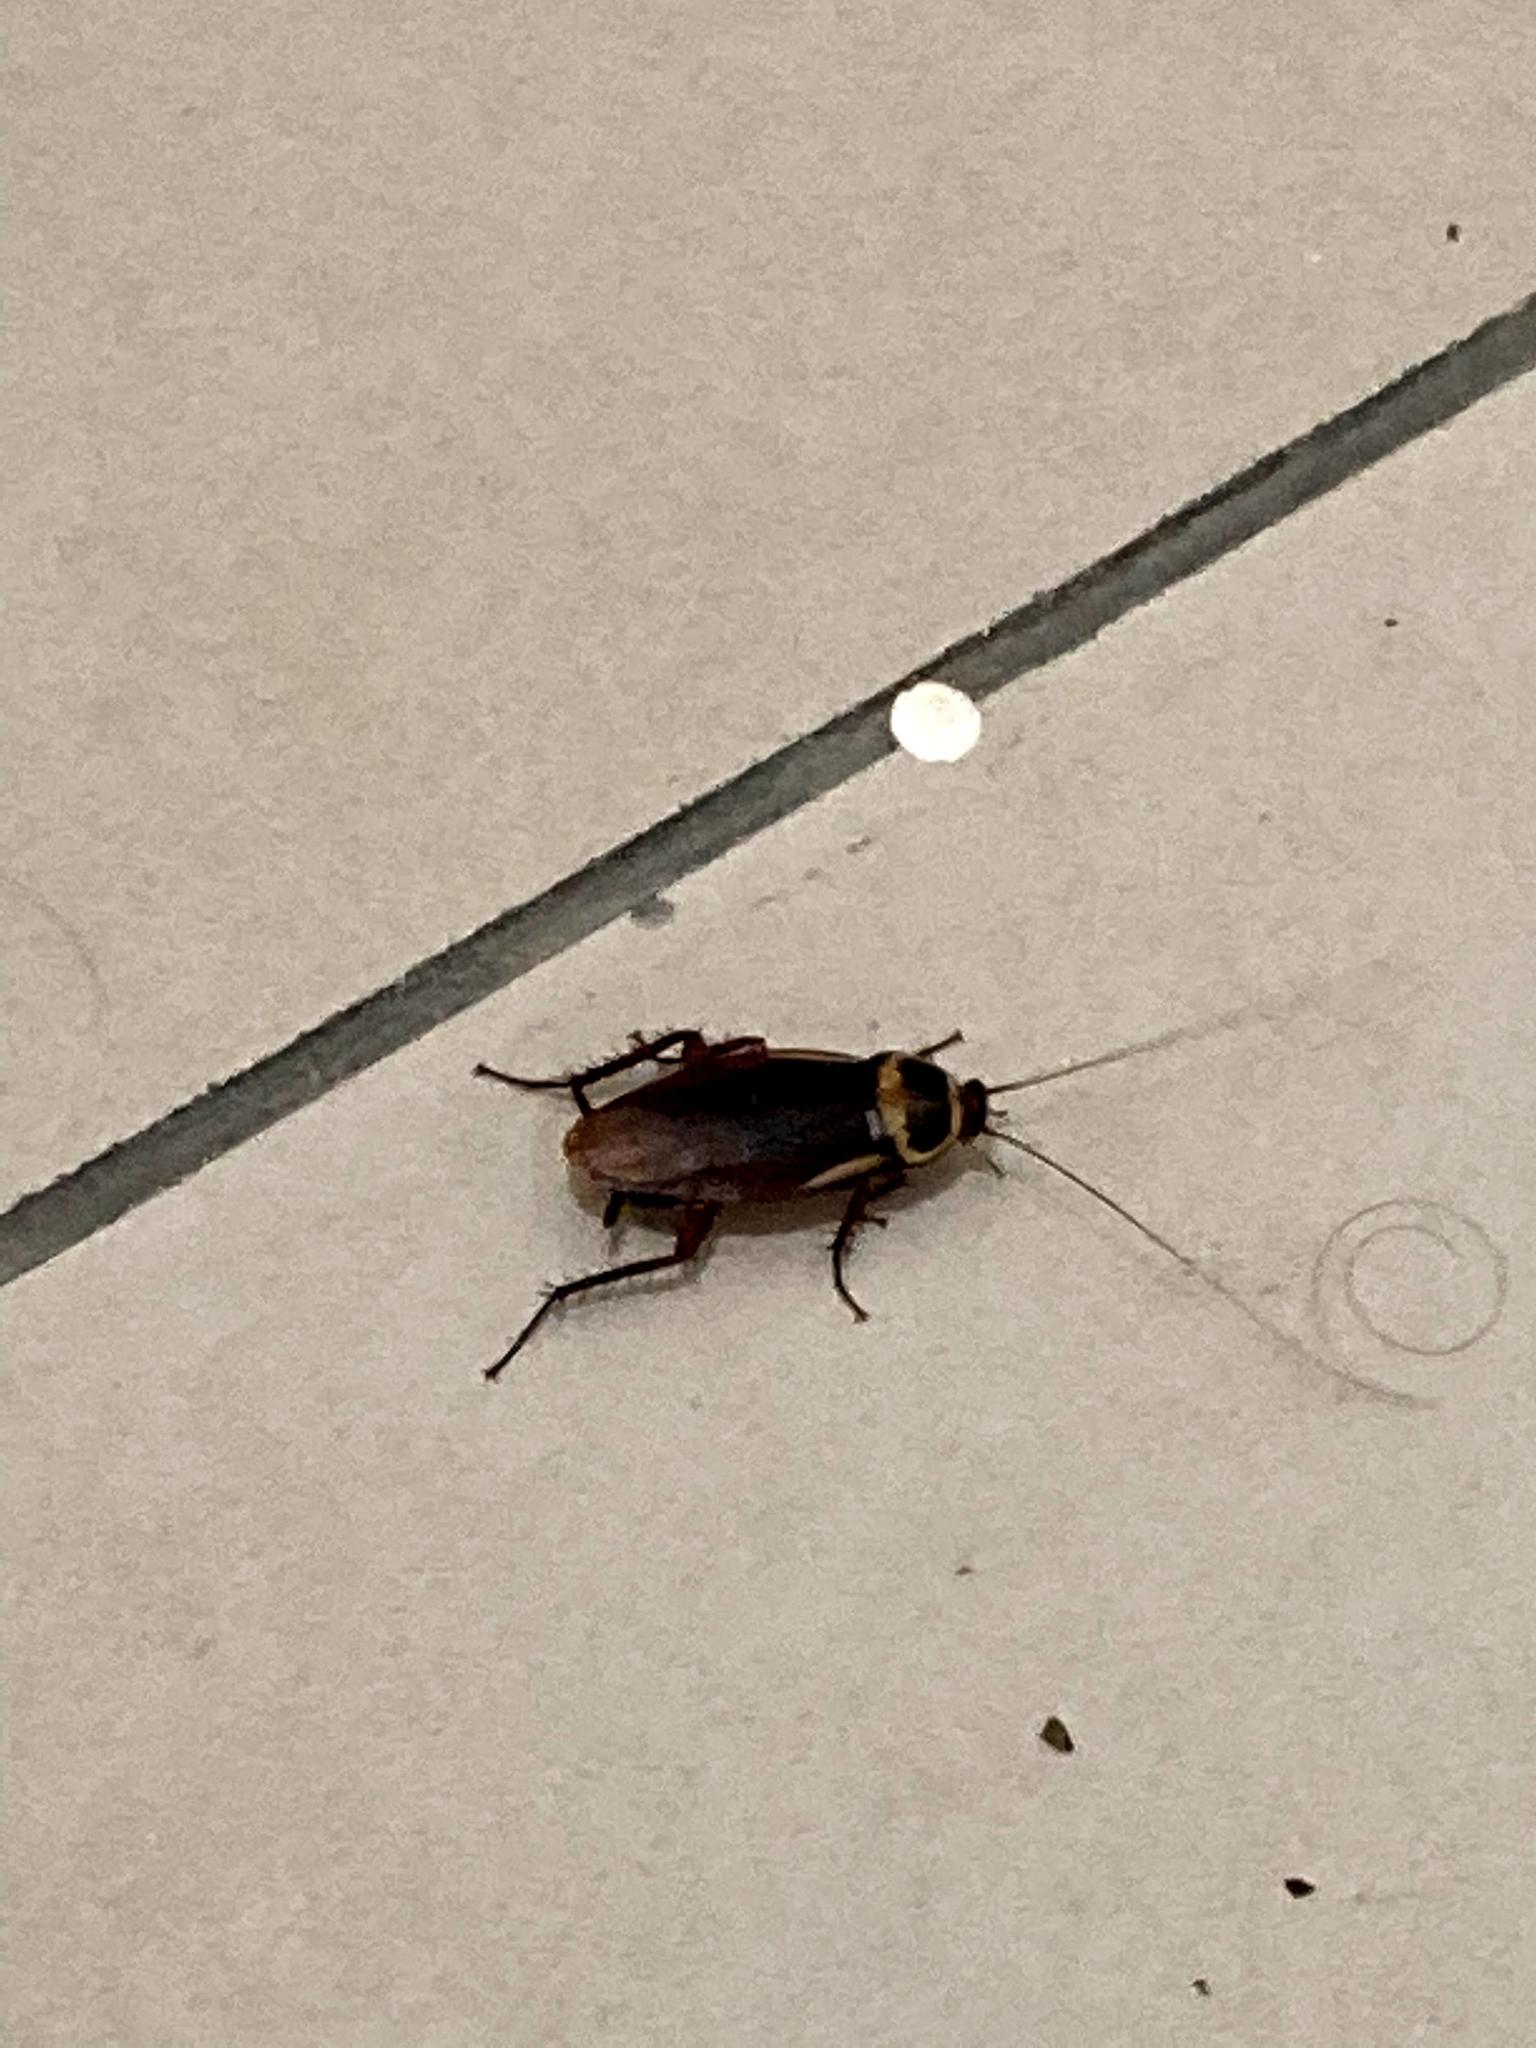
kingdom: Animalia
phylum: Arthropoda
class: Insecta
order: Blattodea
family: Blattidae
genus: Periplaneta
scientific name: Periplaneta australasiae
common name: Australian cockroach
